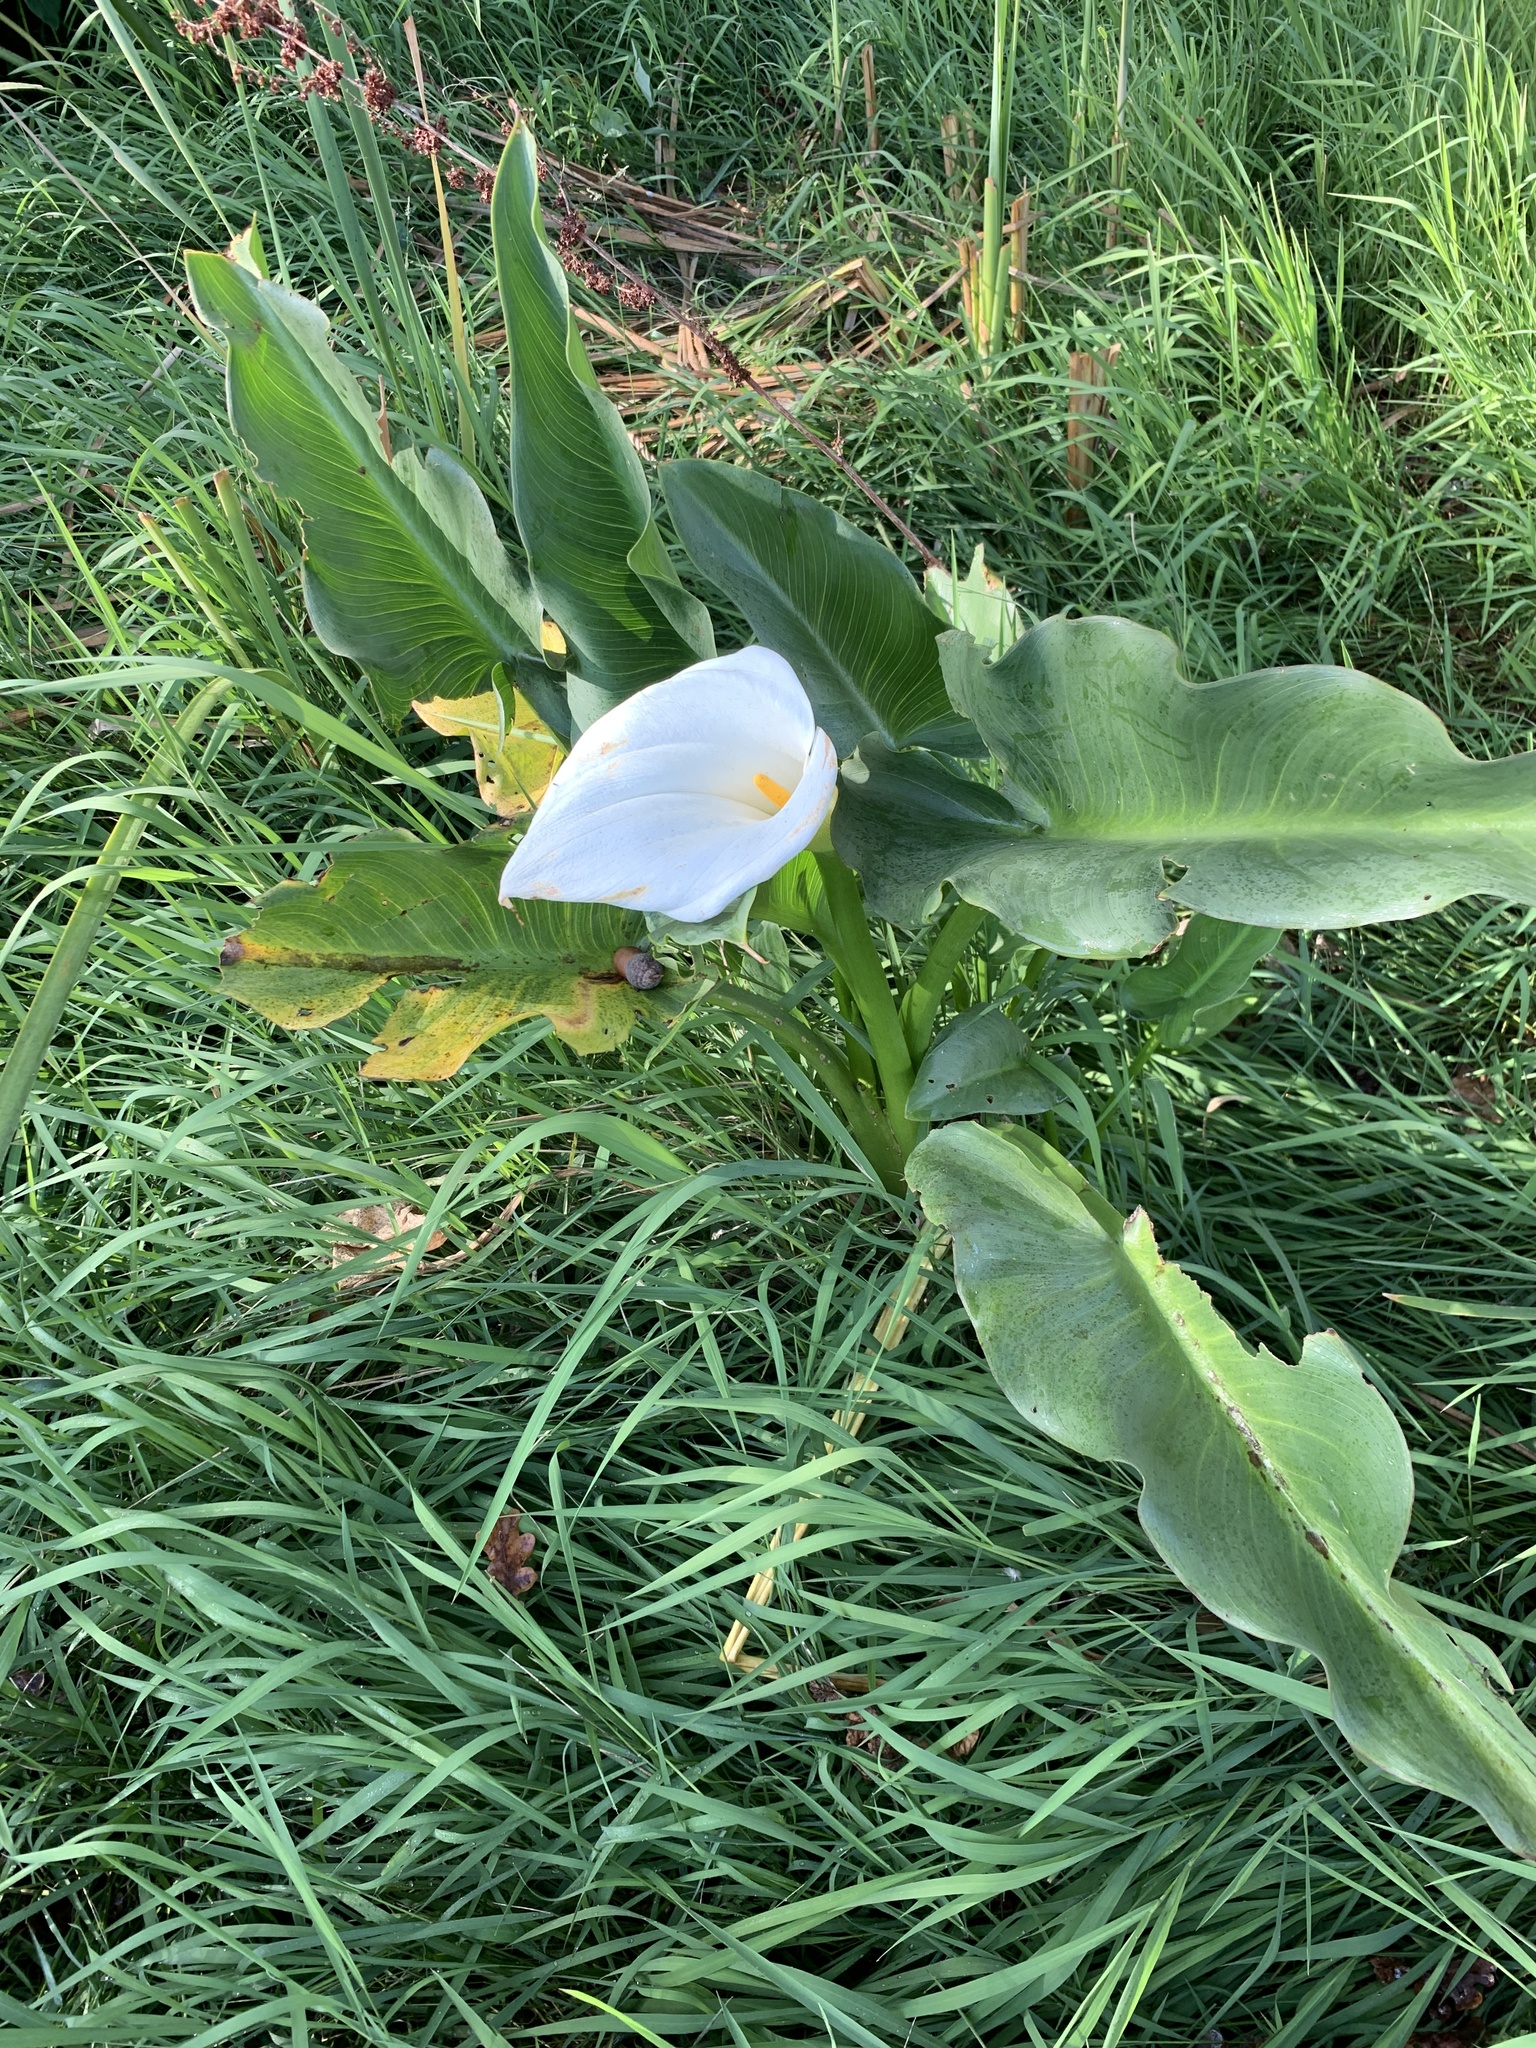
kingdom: Plantae
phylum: Tracheophyta
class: Liliopsida
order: Alismatales
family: Araceae
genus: Zantedeschia
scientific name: Zantedeschia aethiopica
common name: Altar-lily
